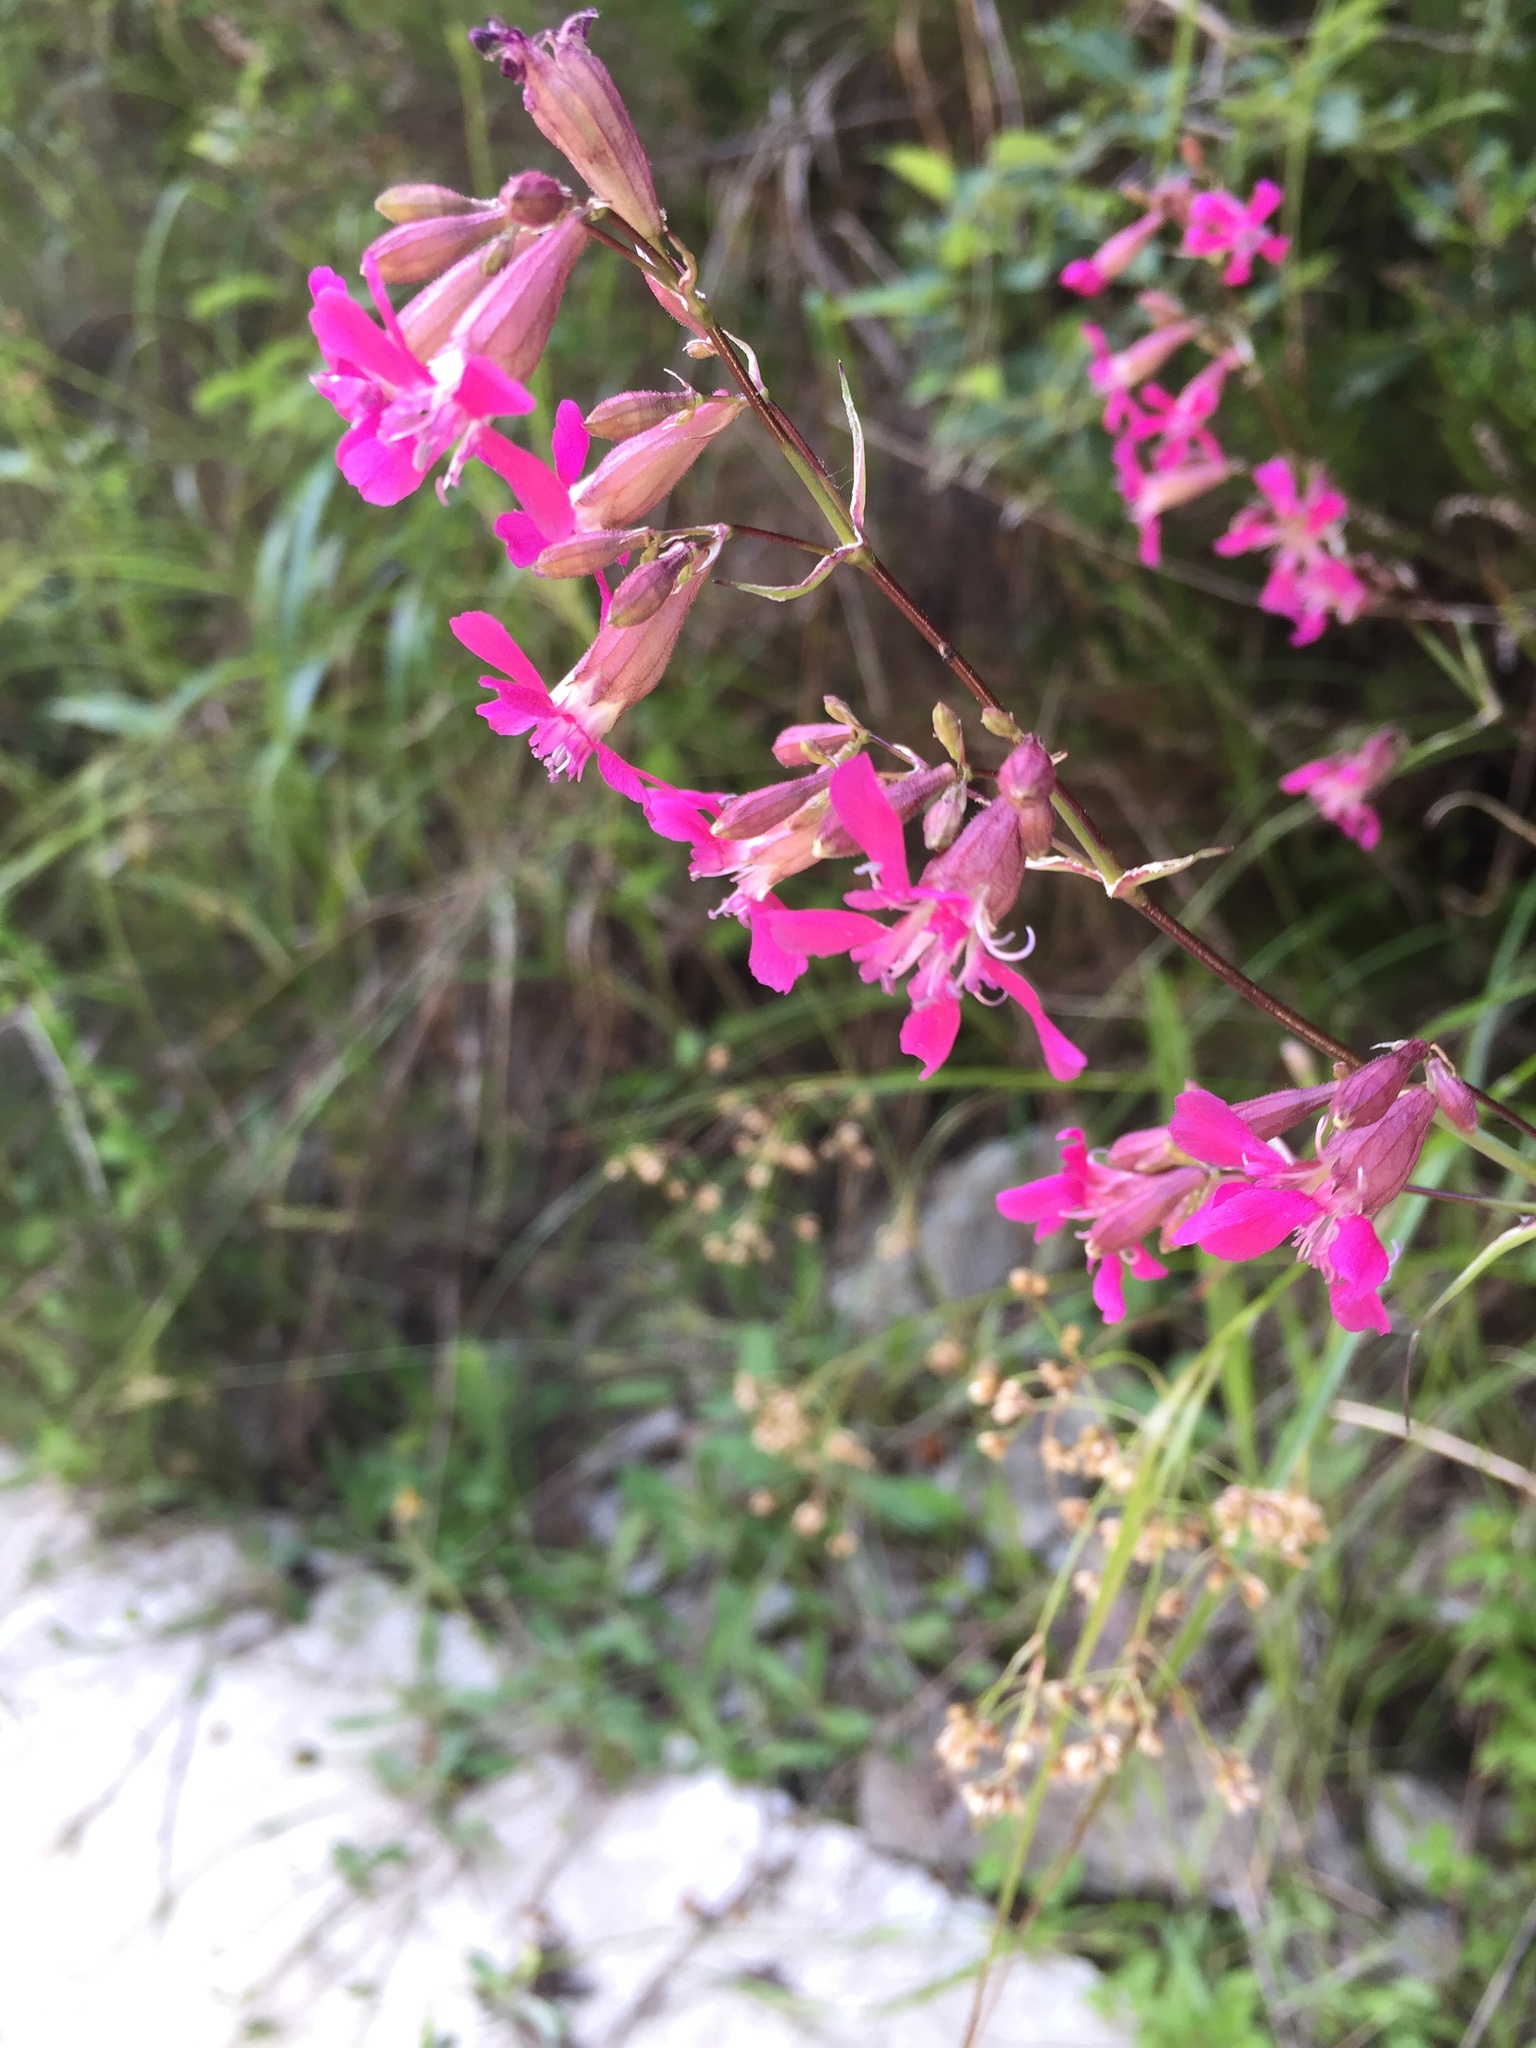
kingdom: Plantae
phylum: Tracheophyta
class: Magnoliopsida
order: Caryophyllales
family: Caryophyllaceae
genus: Viscaria
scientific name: Viscaria vulgaris
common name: Clammy campion
